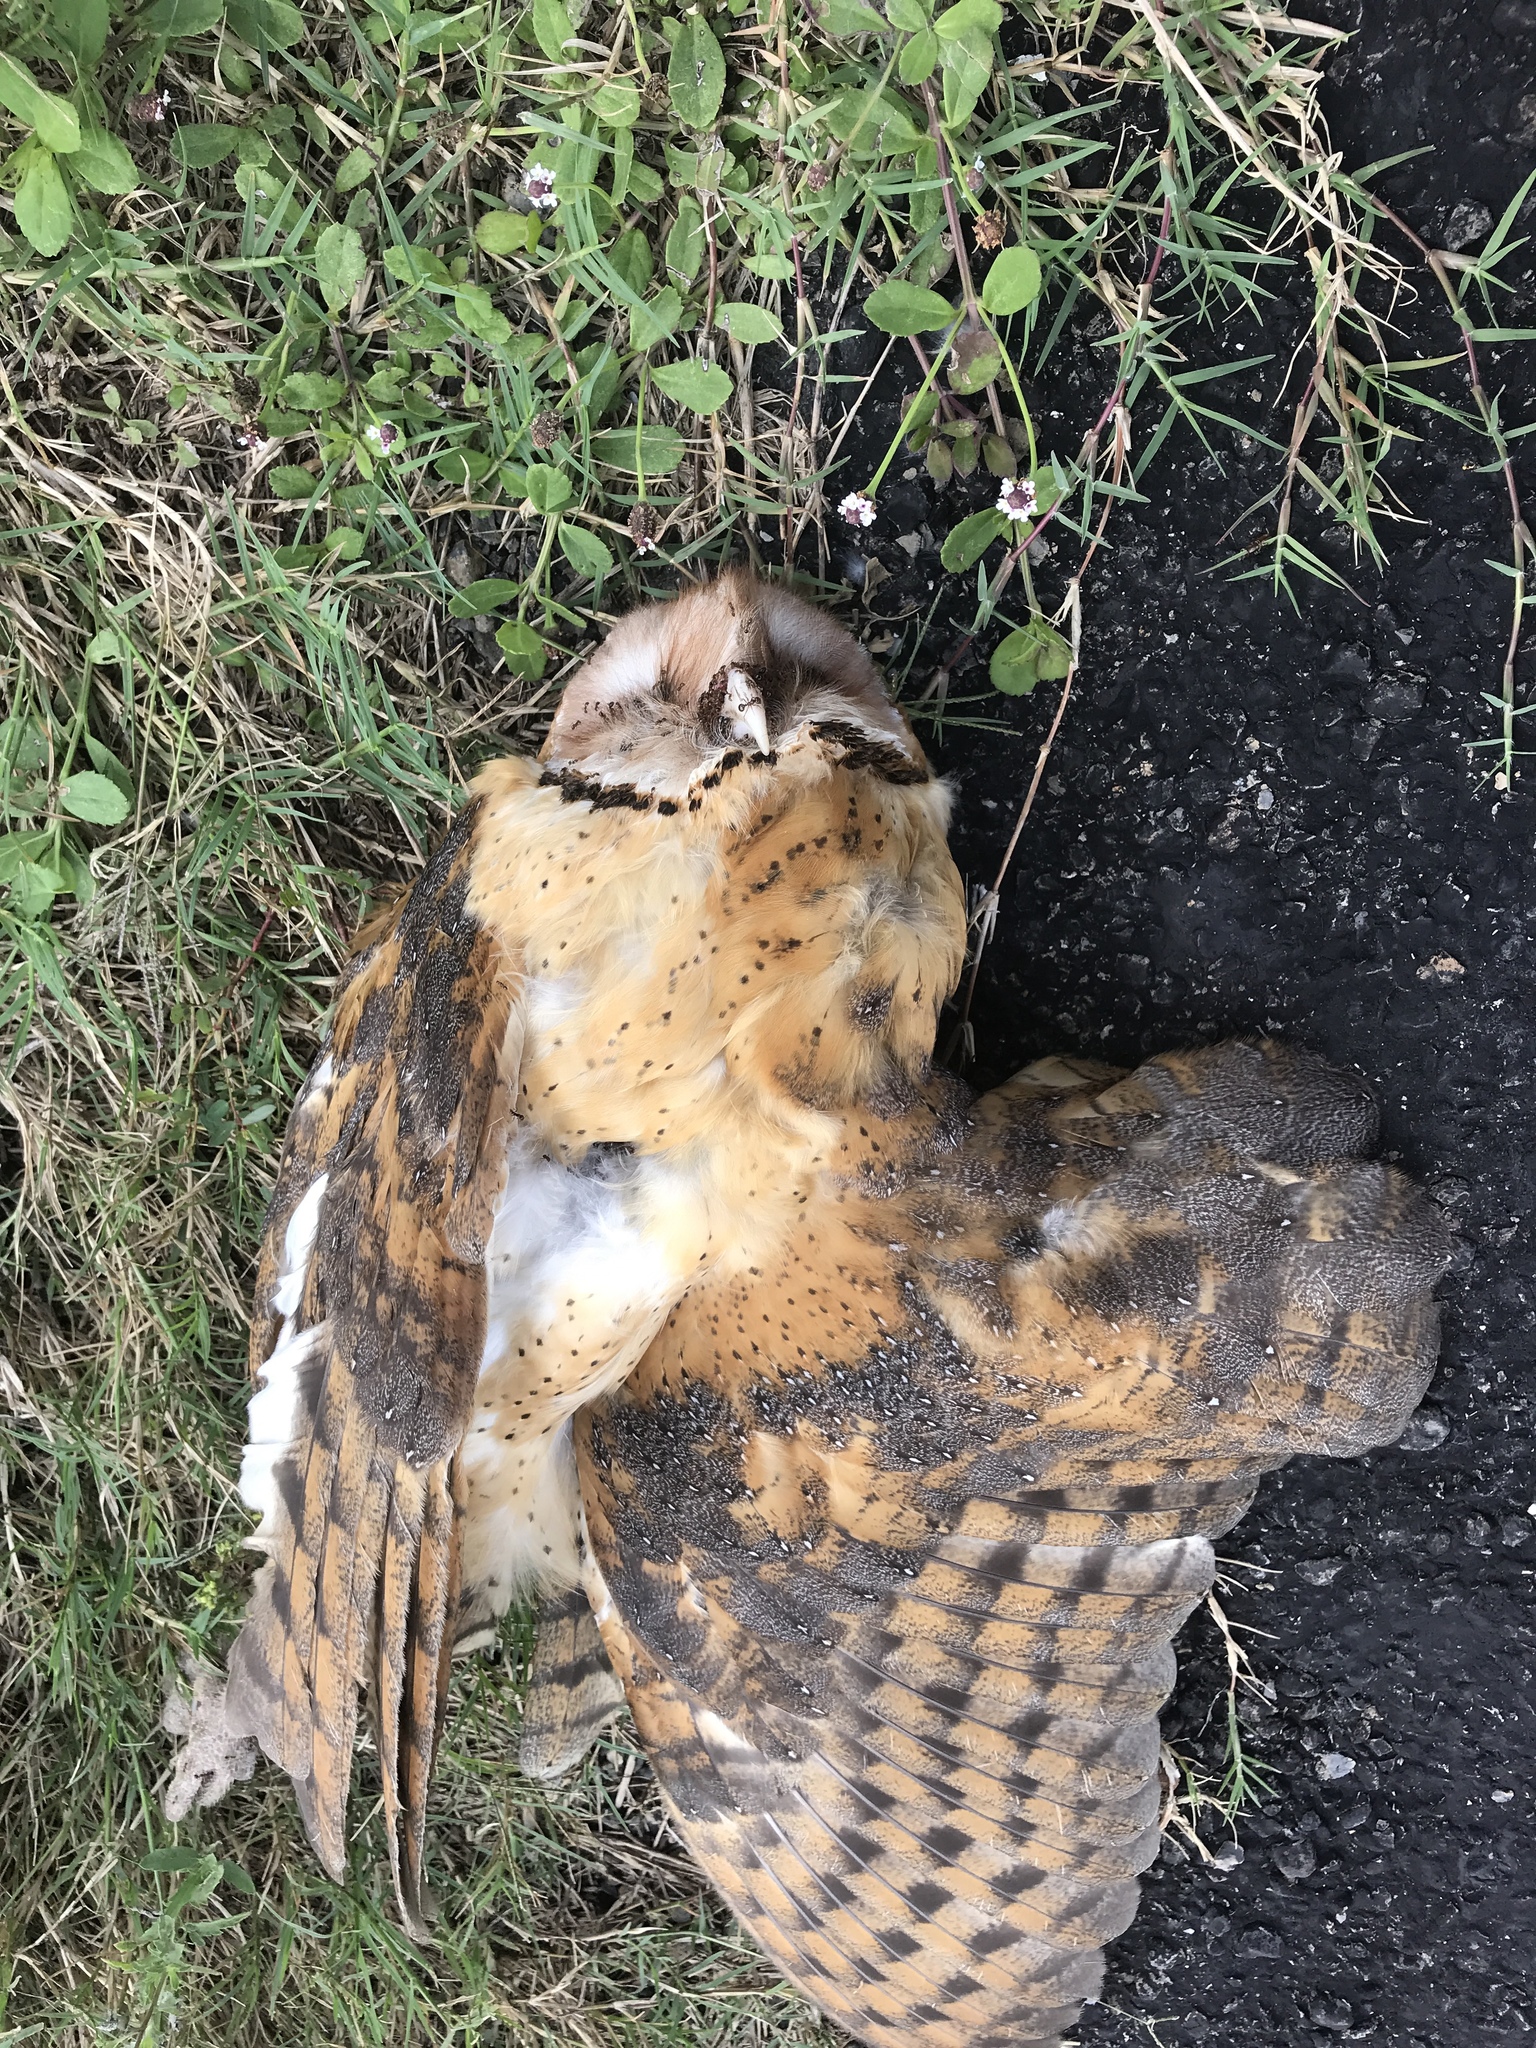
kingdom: Animalia
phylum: Chordata
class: Aves
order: Strigiformes
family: Tytonidae
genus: Tyto
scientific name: Tyto alba
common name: Barn owl
